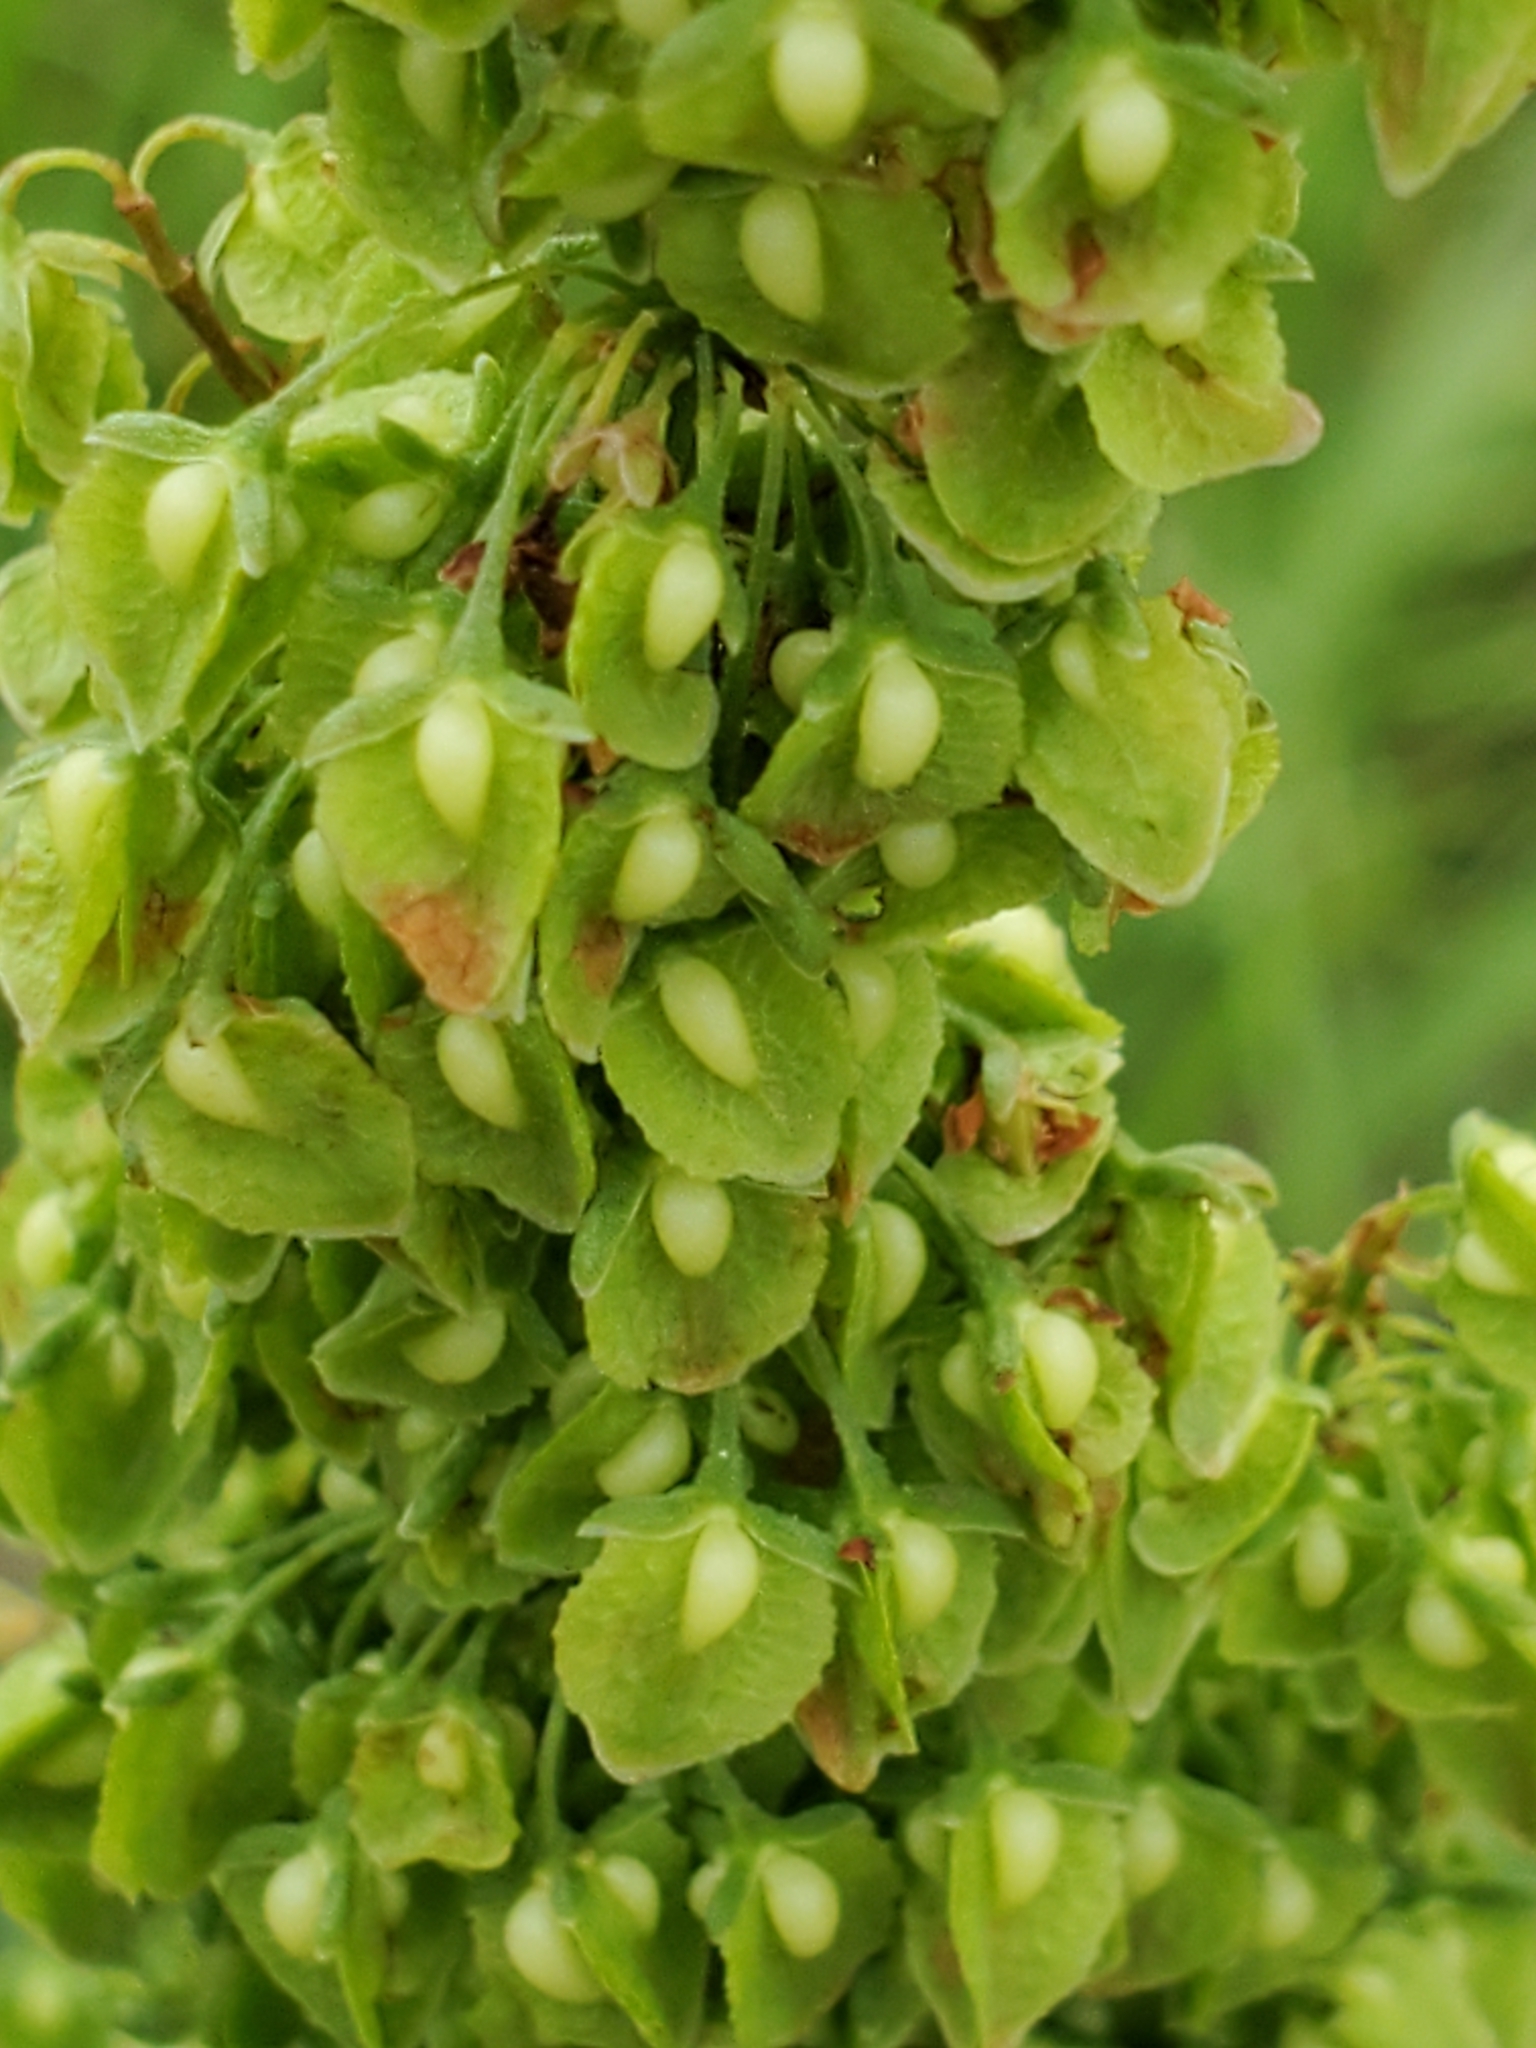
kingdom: Plantae
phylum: Tracheophyta
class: Magnoliopsida
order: Caryophyllales
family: Polygonaceae
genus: Rumex
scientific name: Rumex crispus
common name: Curled dock
